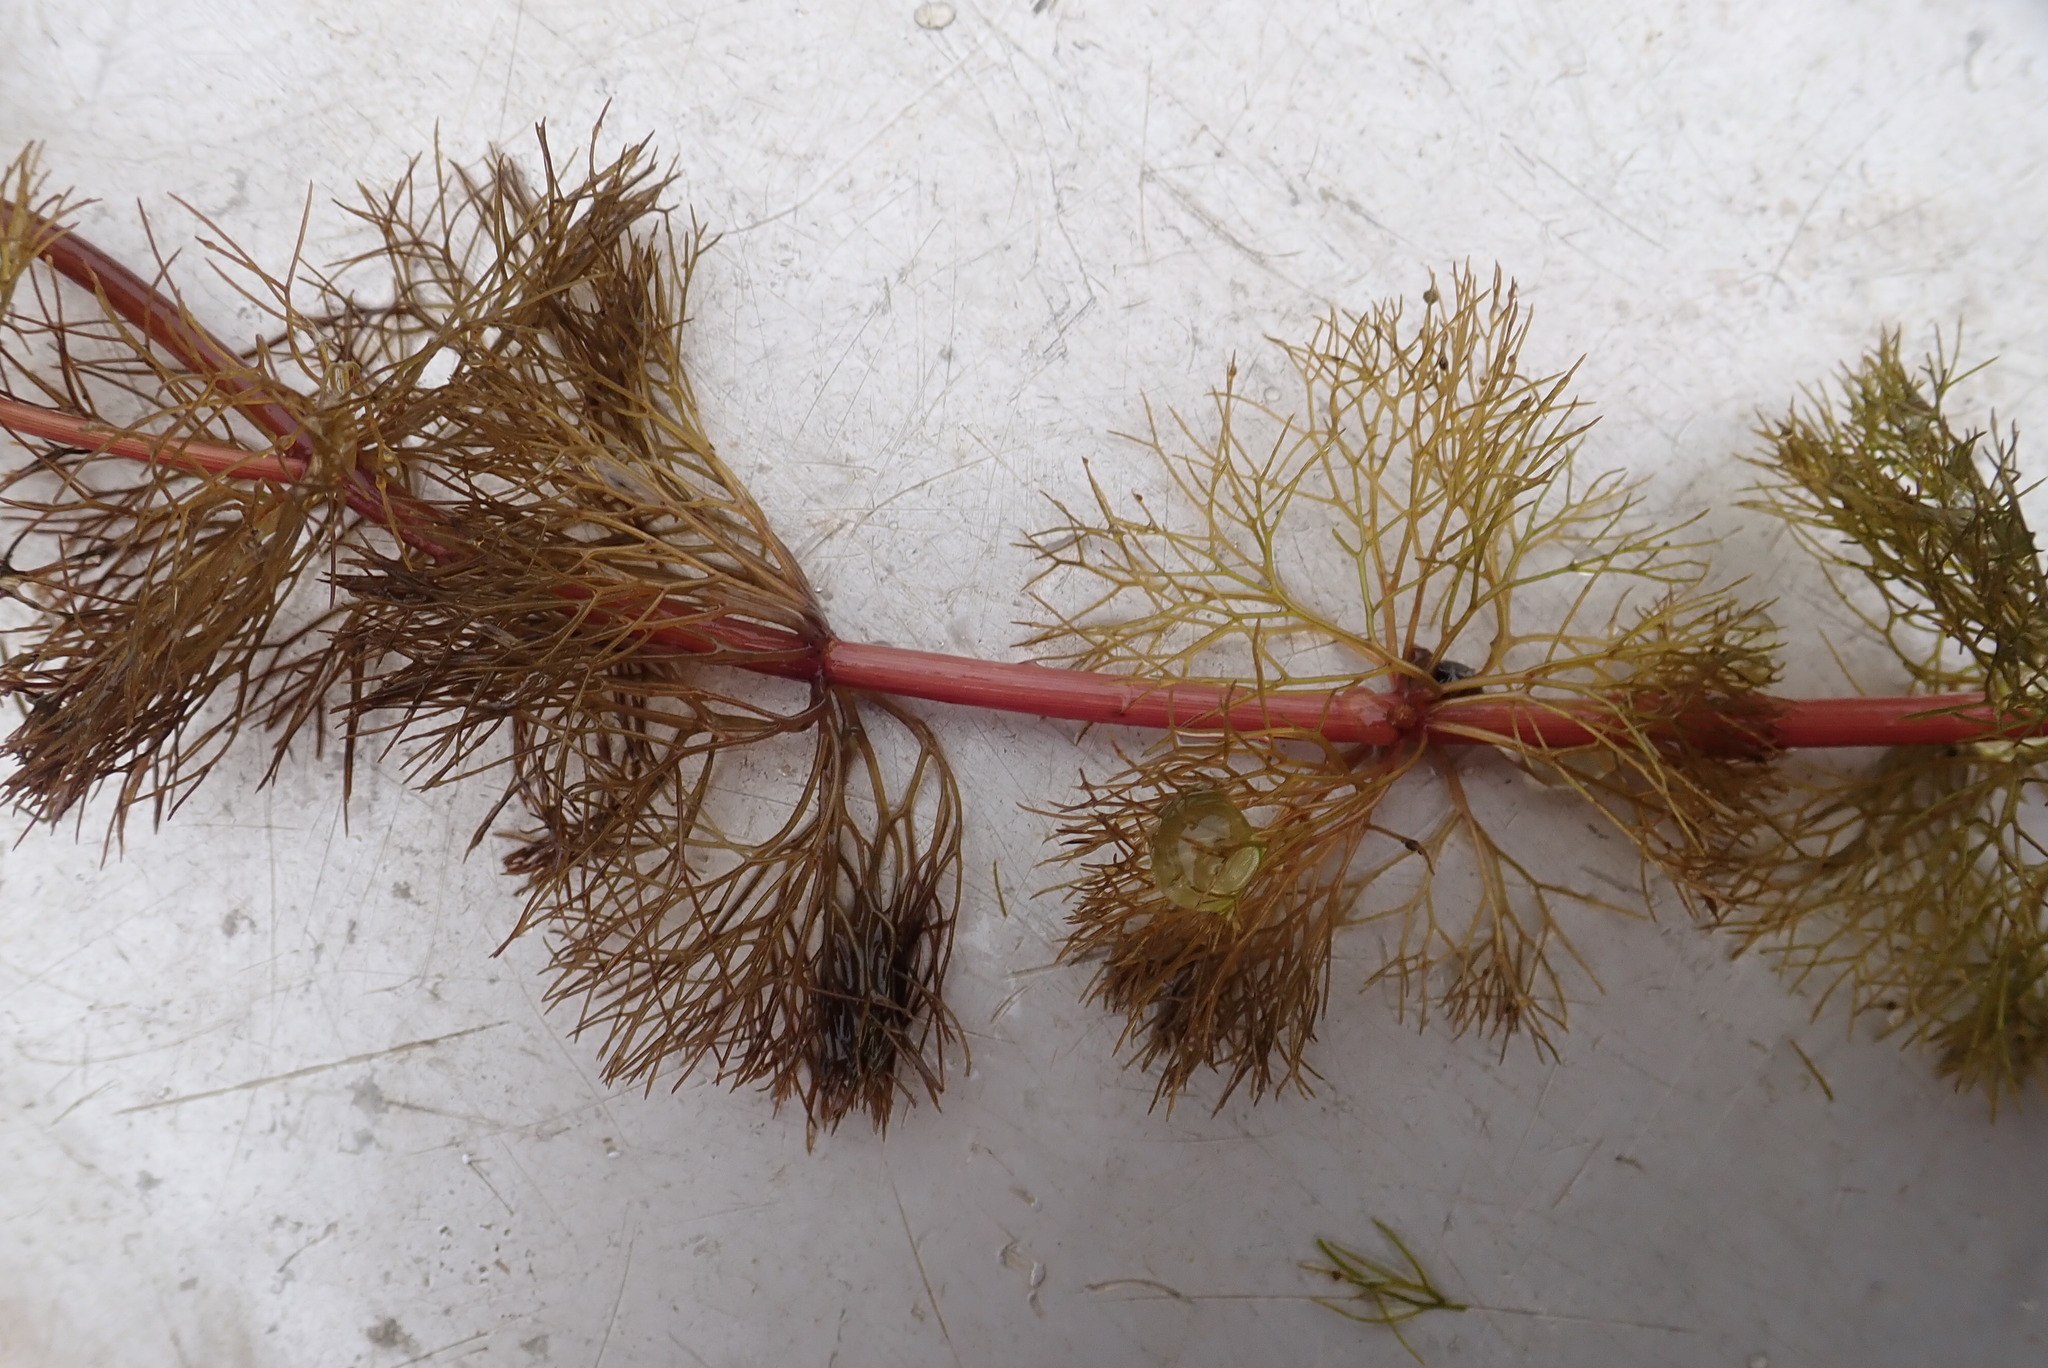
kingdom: Plantae
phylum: Tracheophyta
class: Magnoliopsida
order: Asterales
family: Asteraceae
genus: Bidens
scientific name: Bidens beckii
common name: Beck's beggarticks
